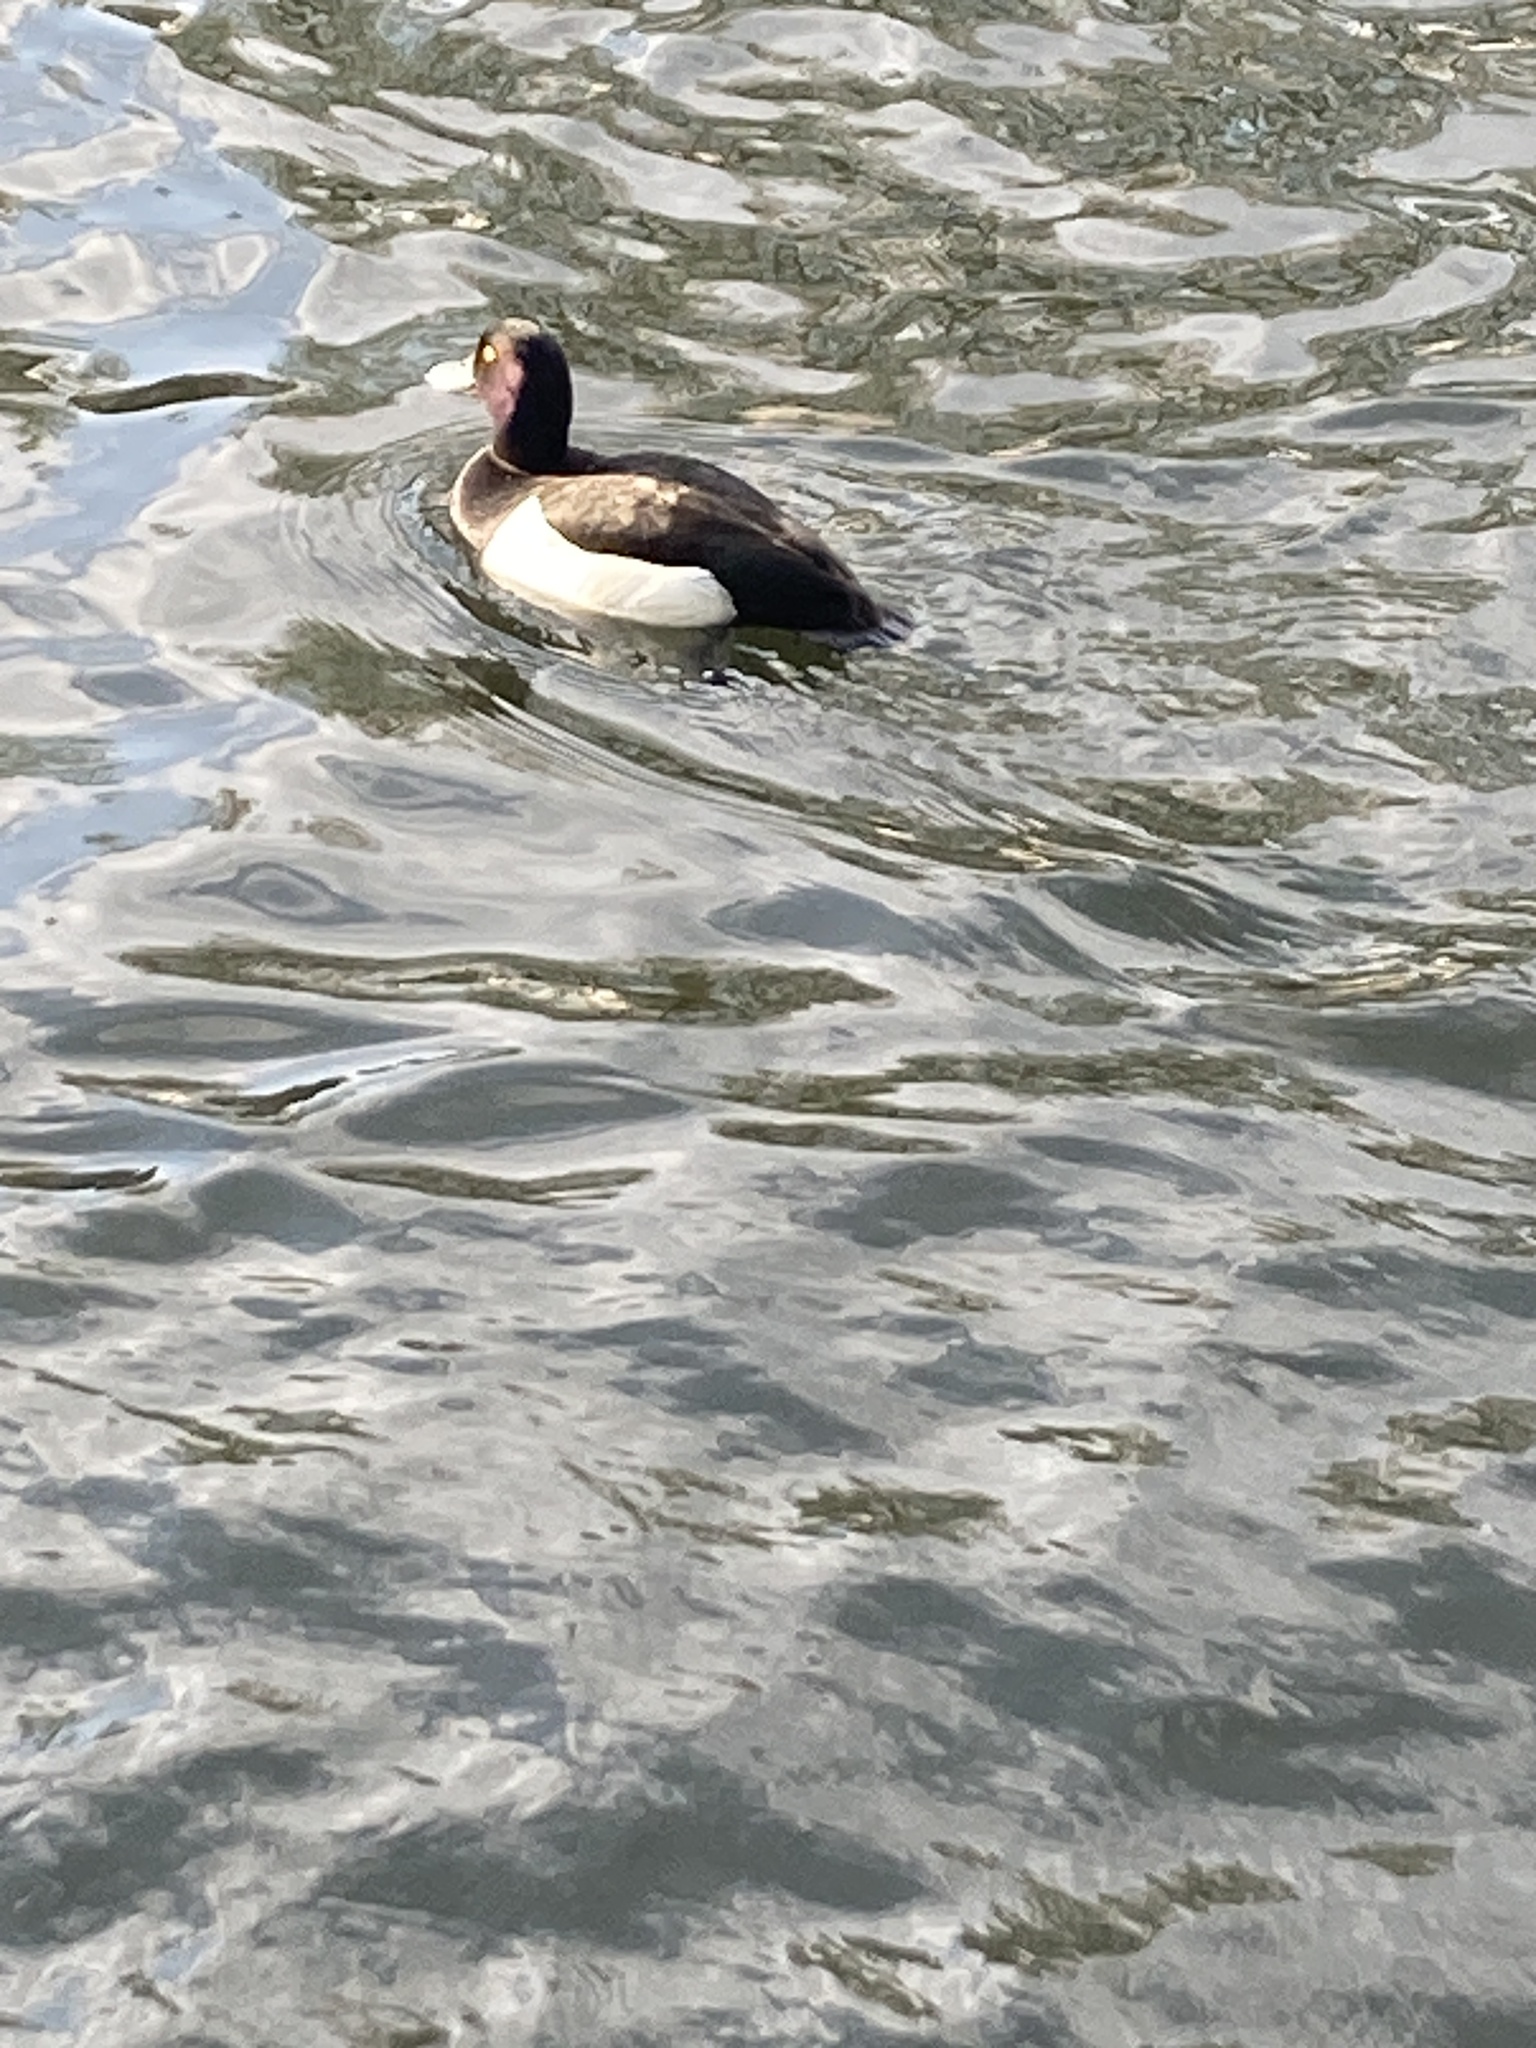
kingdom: Animalia
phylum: Chordata
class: Aves
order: Anseriformes
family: Anatidae
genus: Aythya
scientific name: Aythya fuligula
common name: Tufted duck
